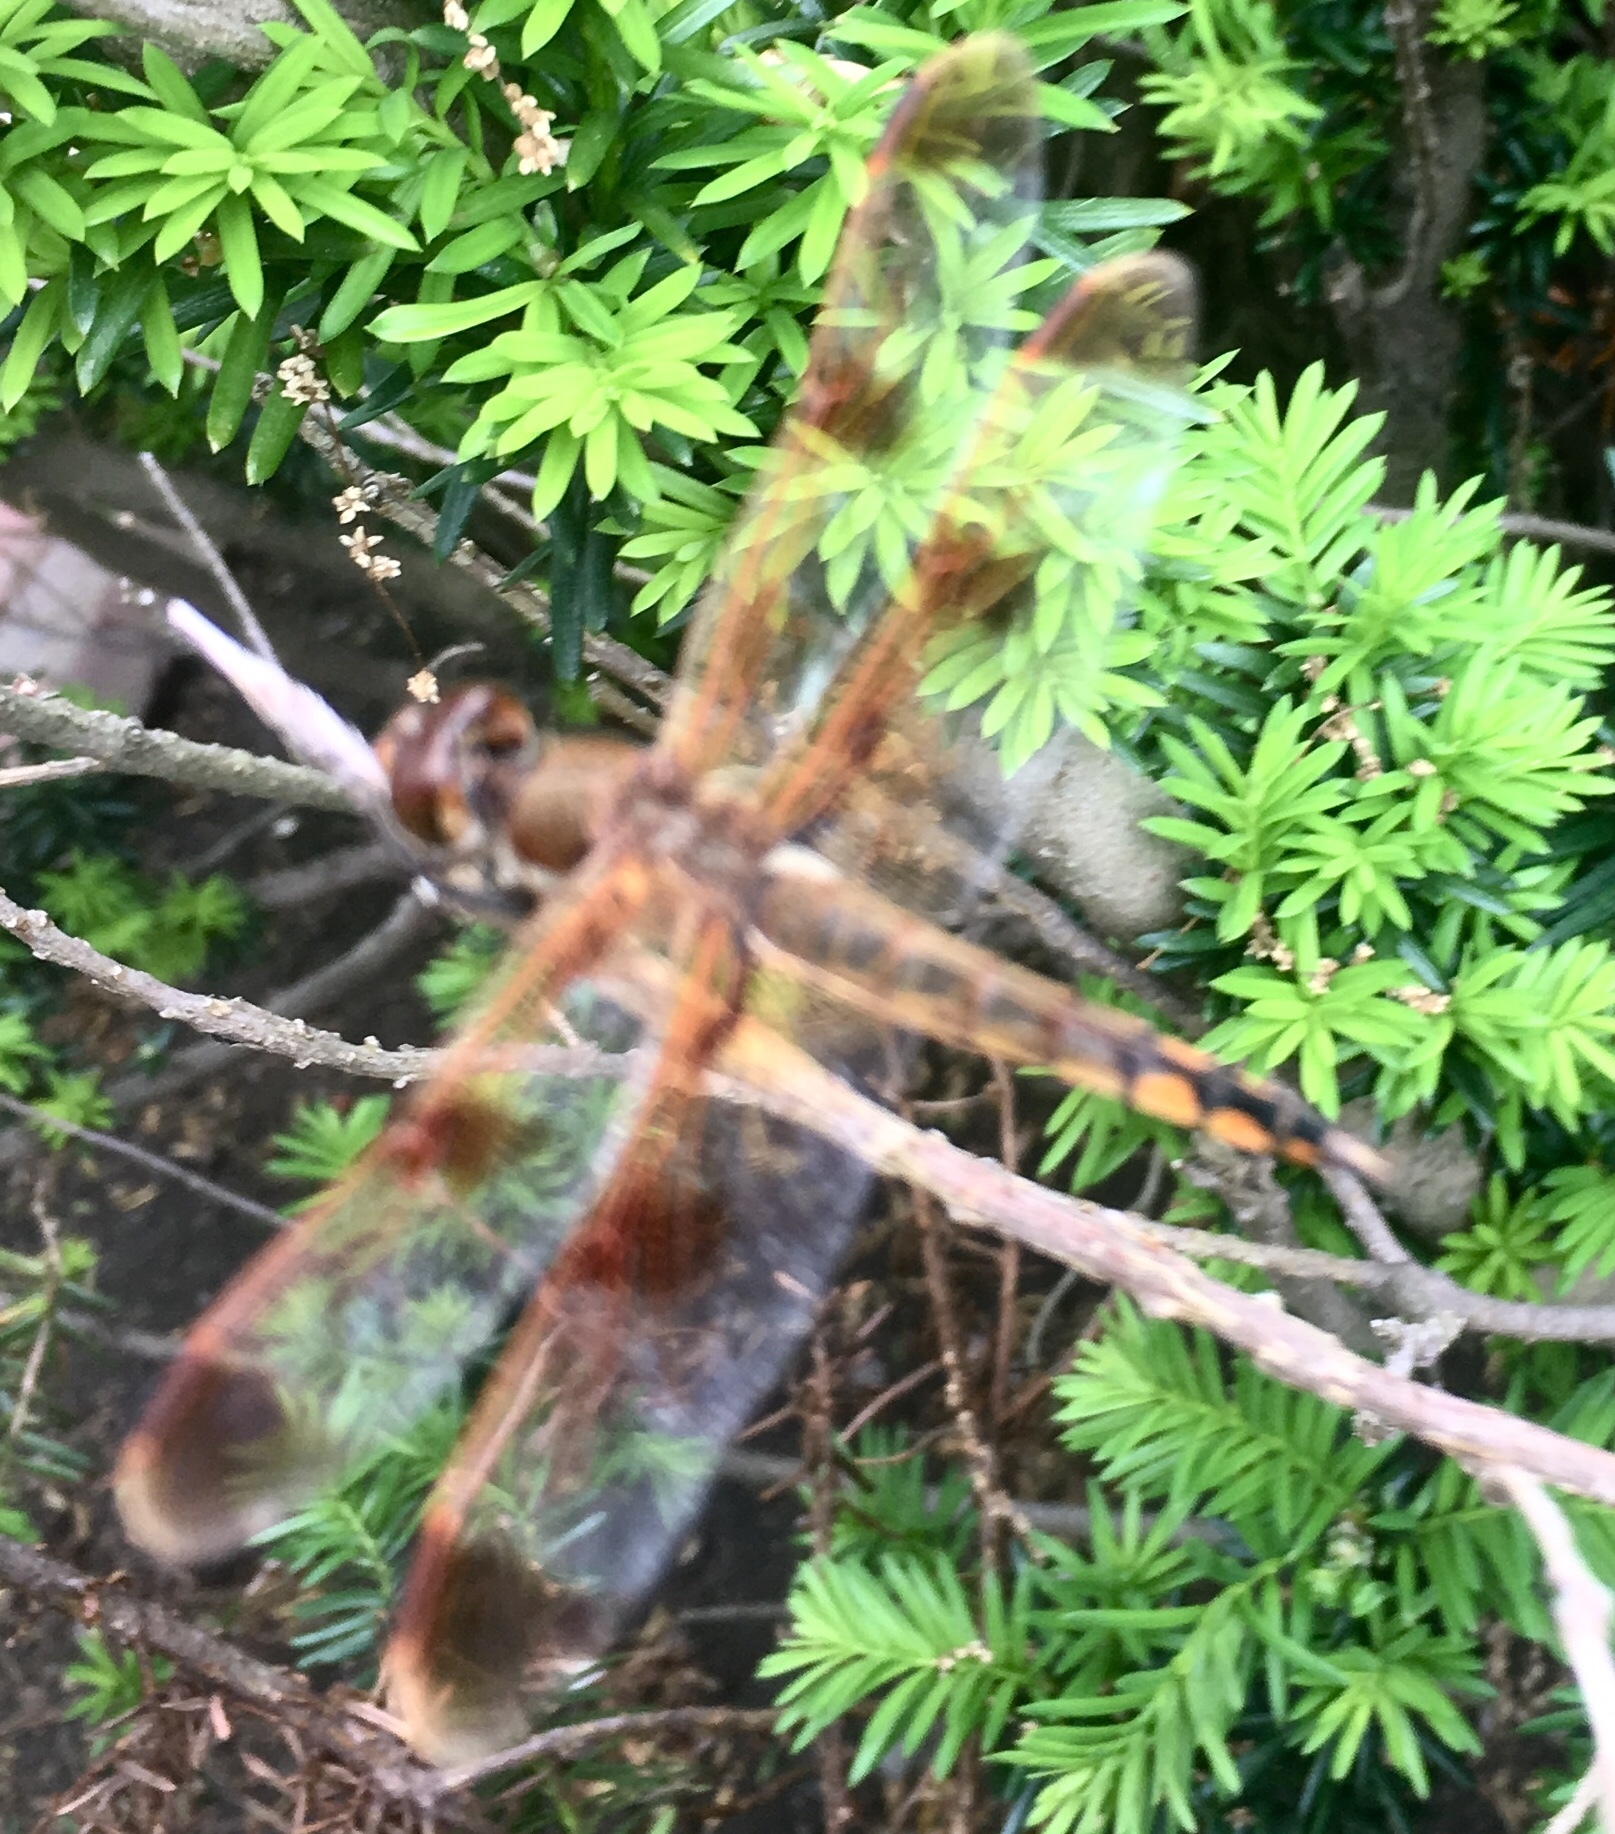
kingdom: Animalia
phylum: Arthropoda
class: Insecta
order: Odonata
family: Libellulidae
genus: Libellula
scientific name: Libellula semifasciata
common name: Painted skimmer
